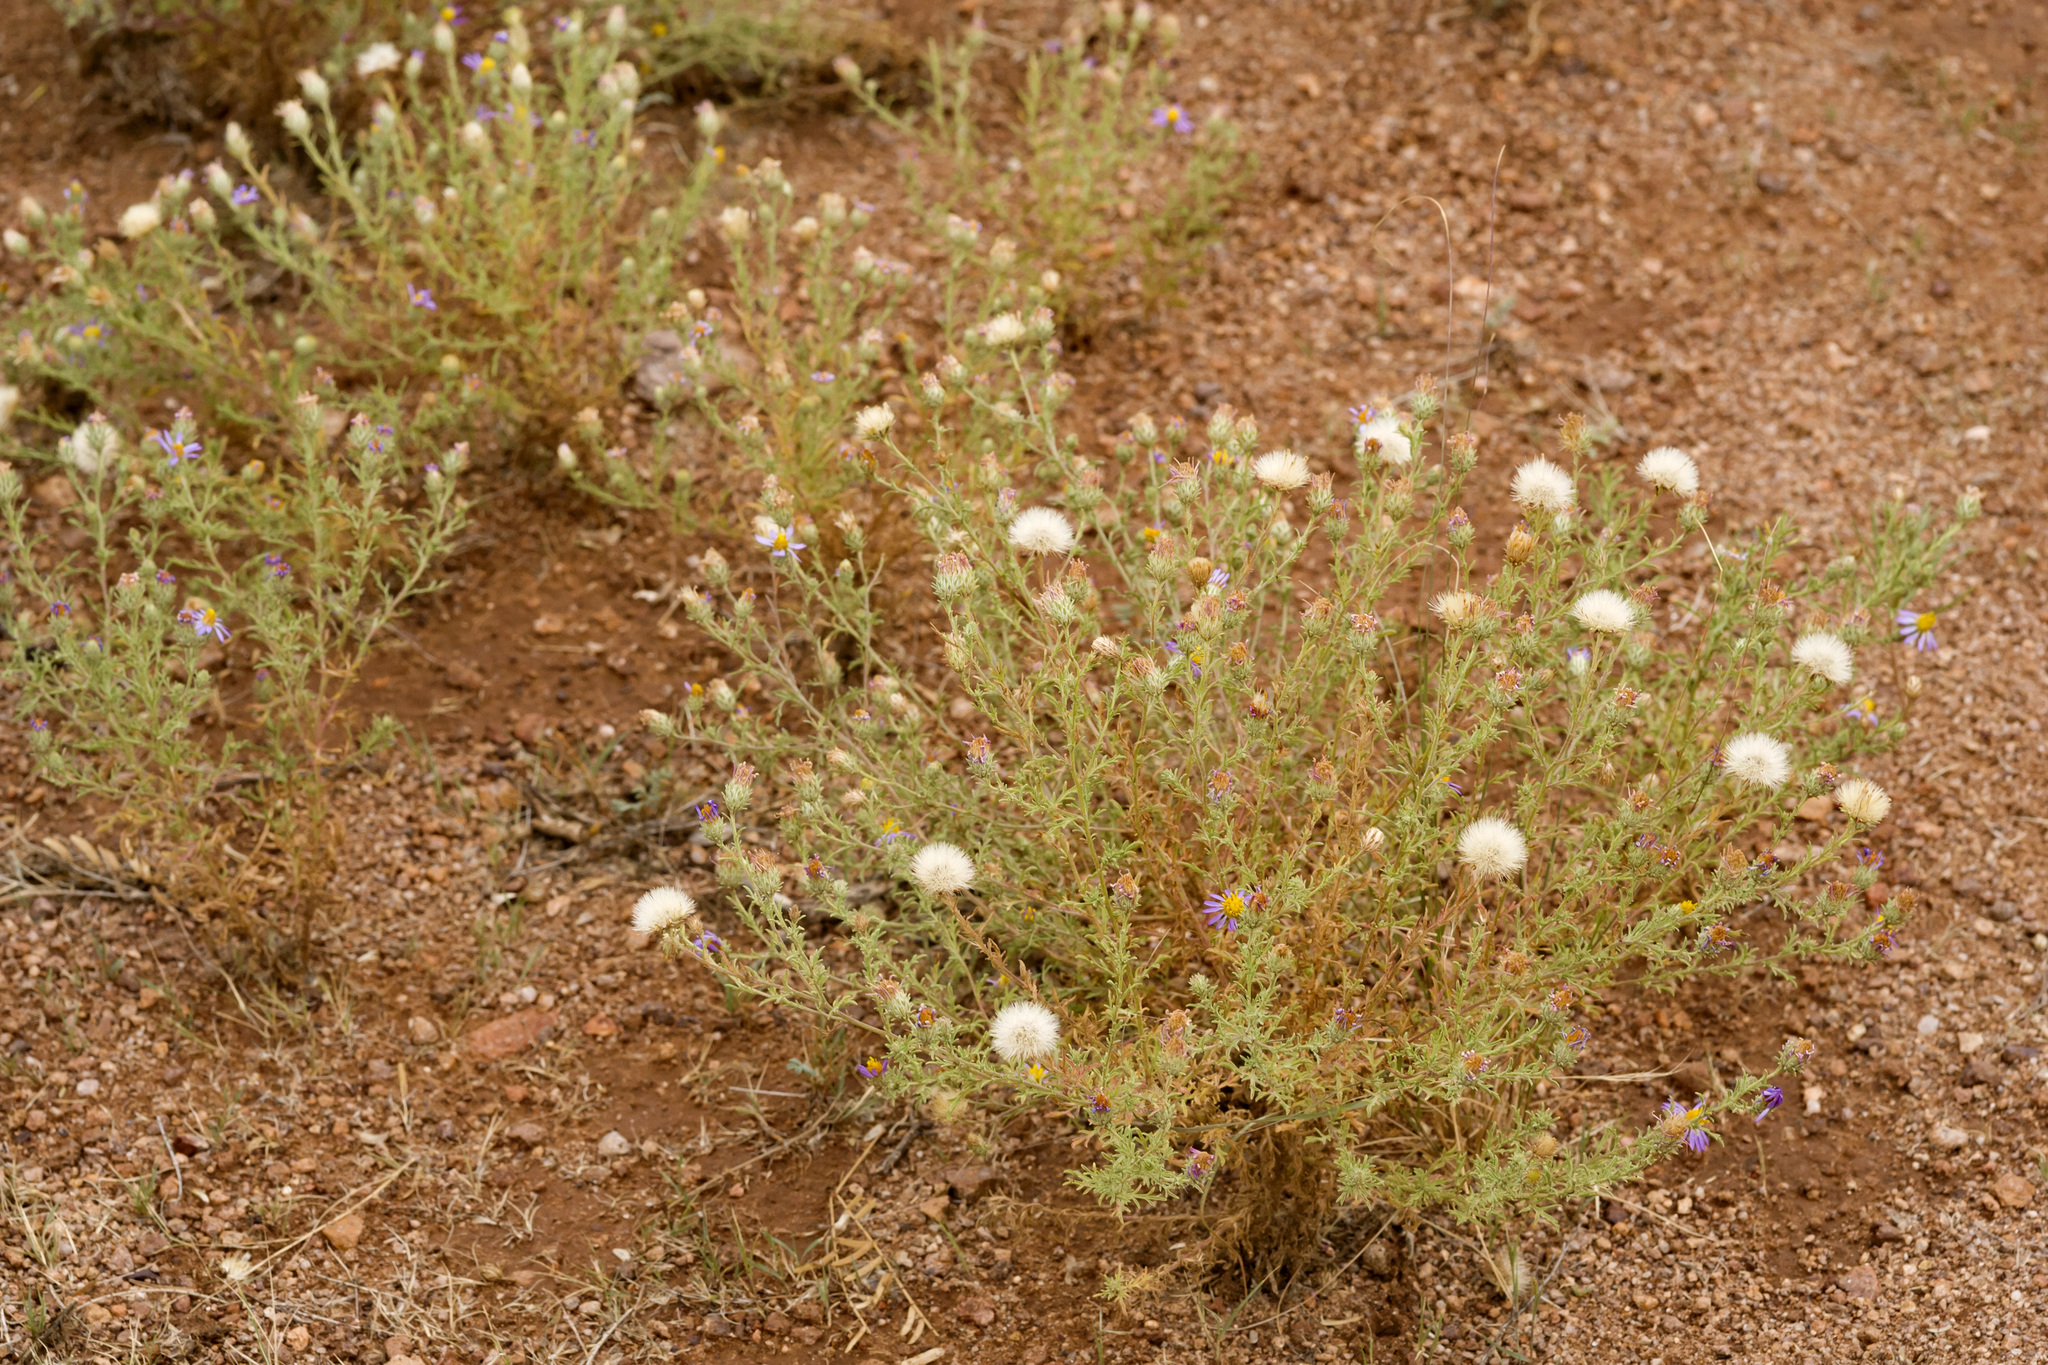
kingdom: Plantae
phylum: Tracheophyta
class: Magnoliopsida
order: Asterales
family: Asteraceae
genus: Machaeranthera
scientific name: Machaeranthera tanacetifolia
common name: Tansy-aster
